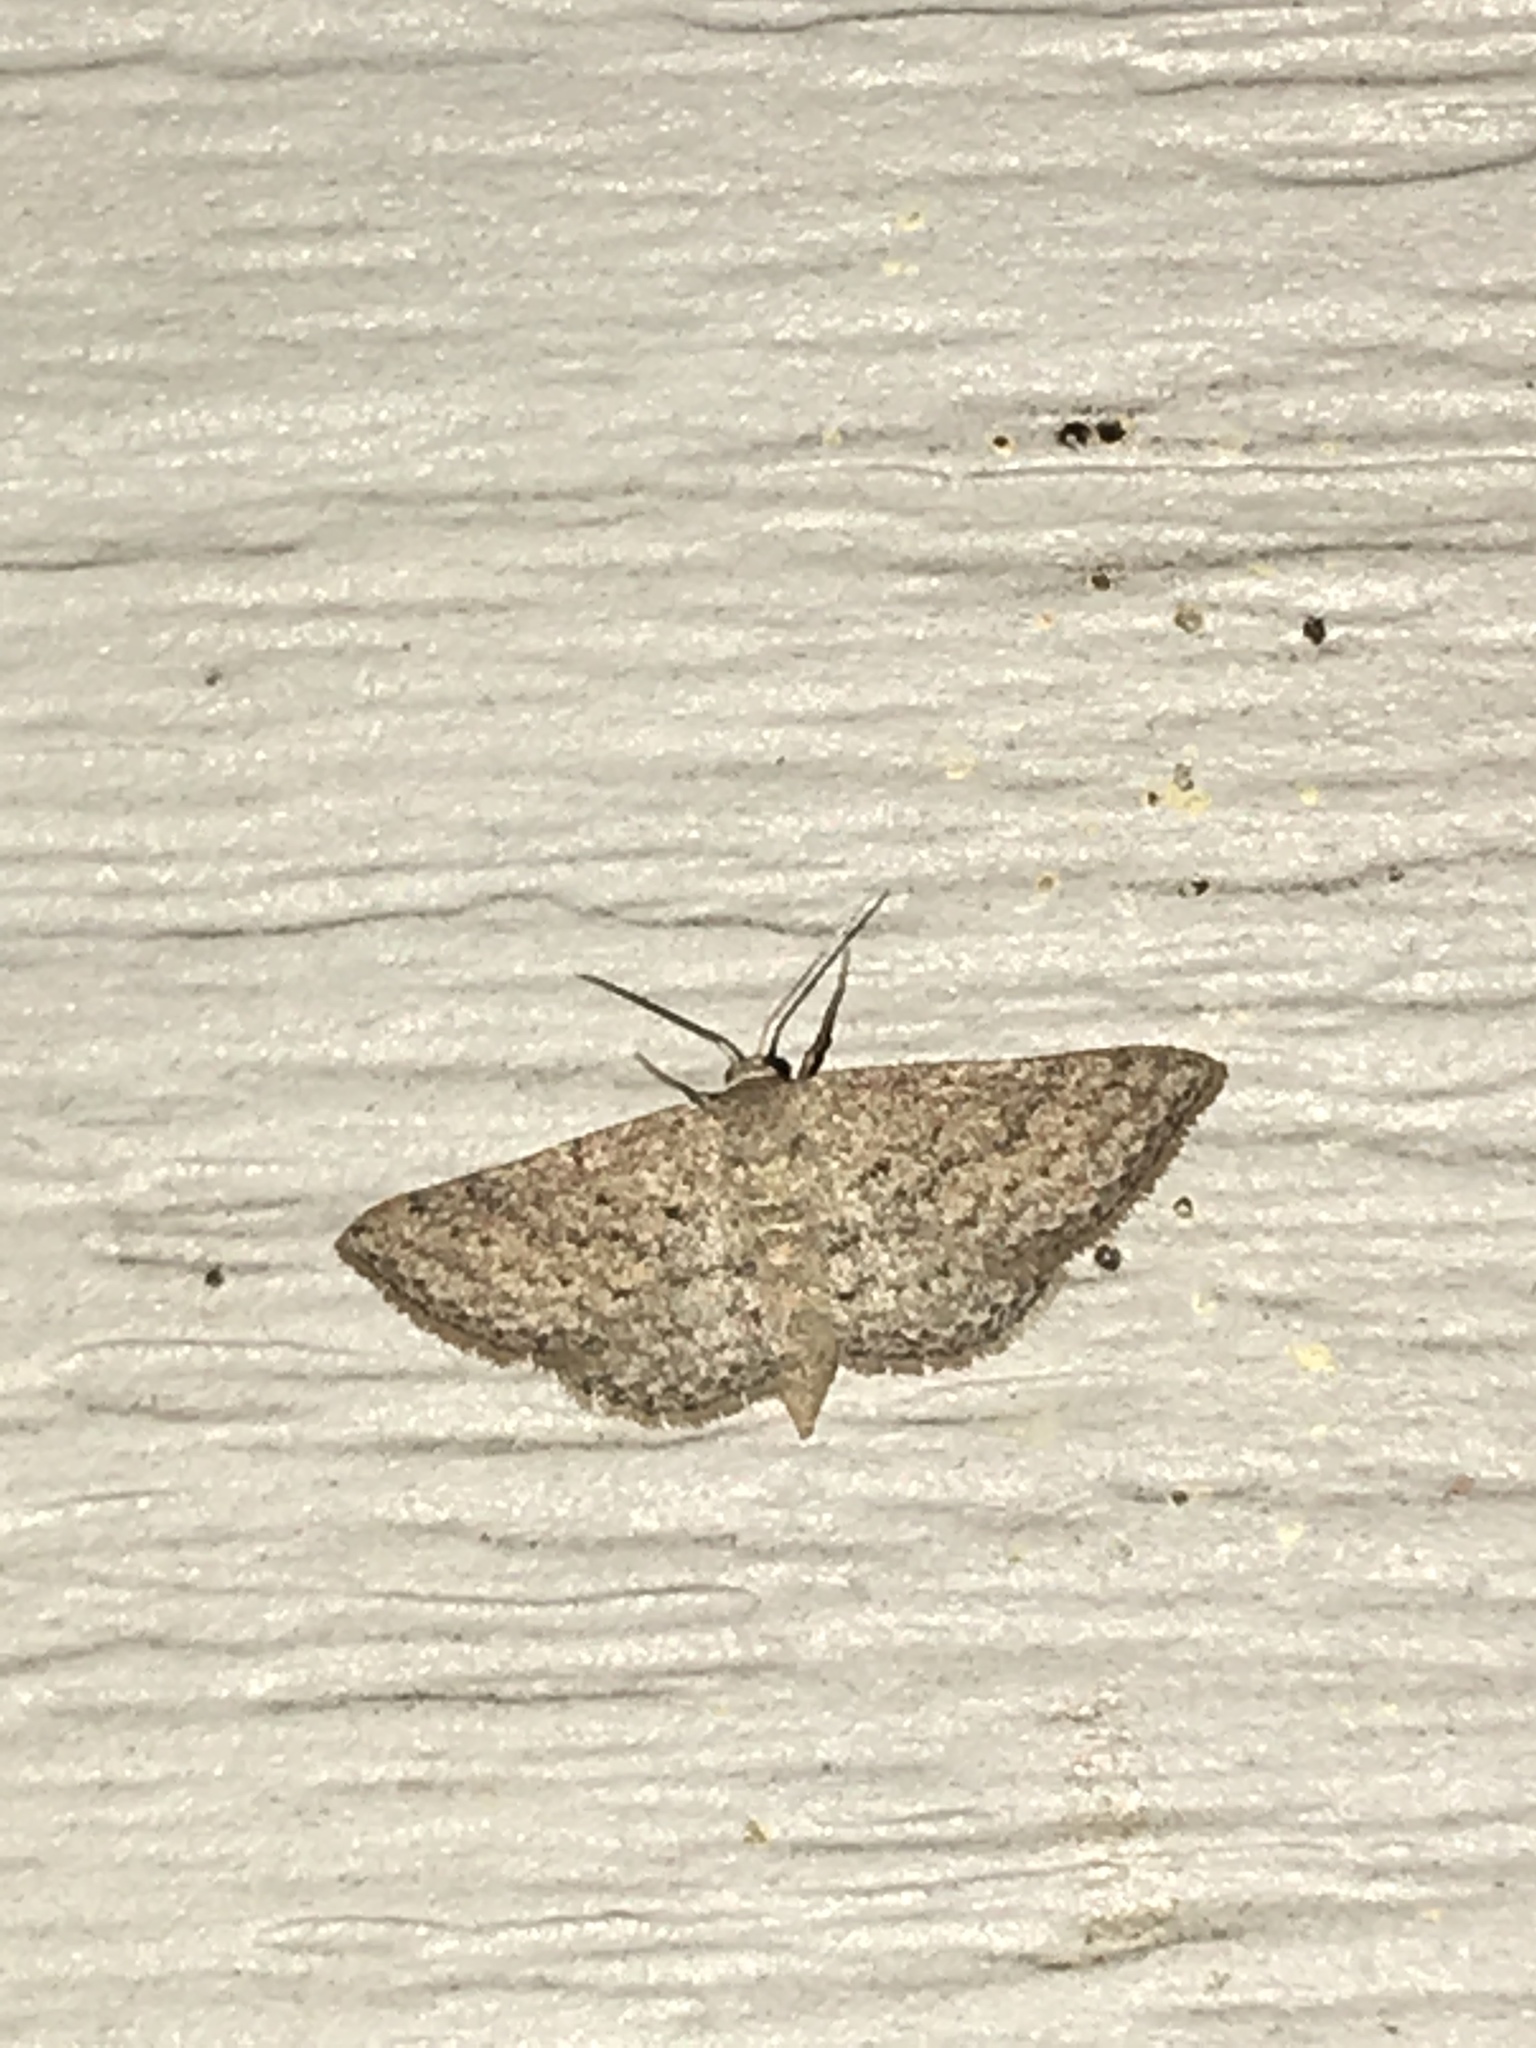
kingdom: Animalia
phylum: Arthropoda
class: Insecta
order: Lepidoptera
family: Geometridae
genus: Lobocleta
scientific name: Lobocleta ossularia
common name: Drab brown wave
